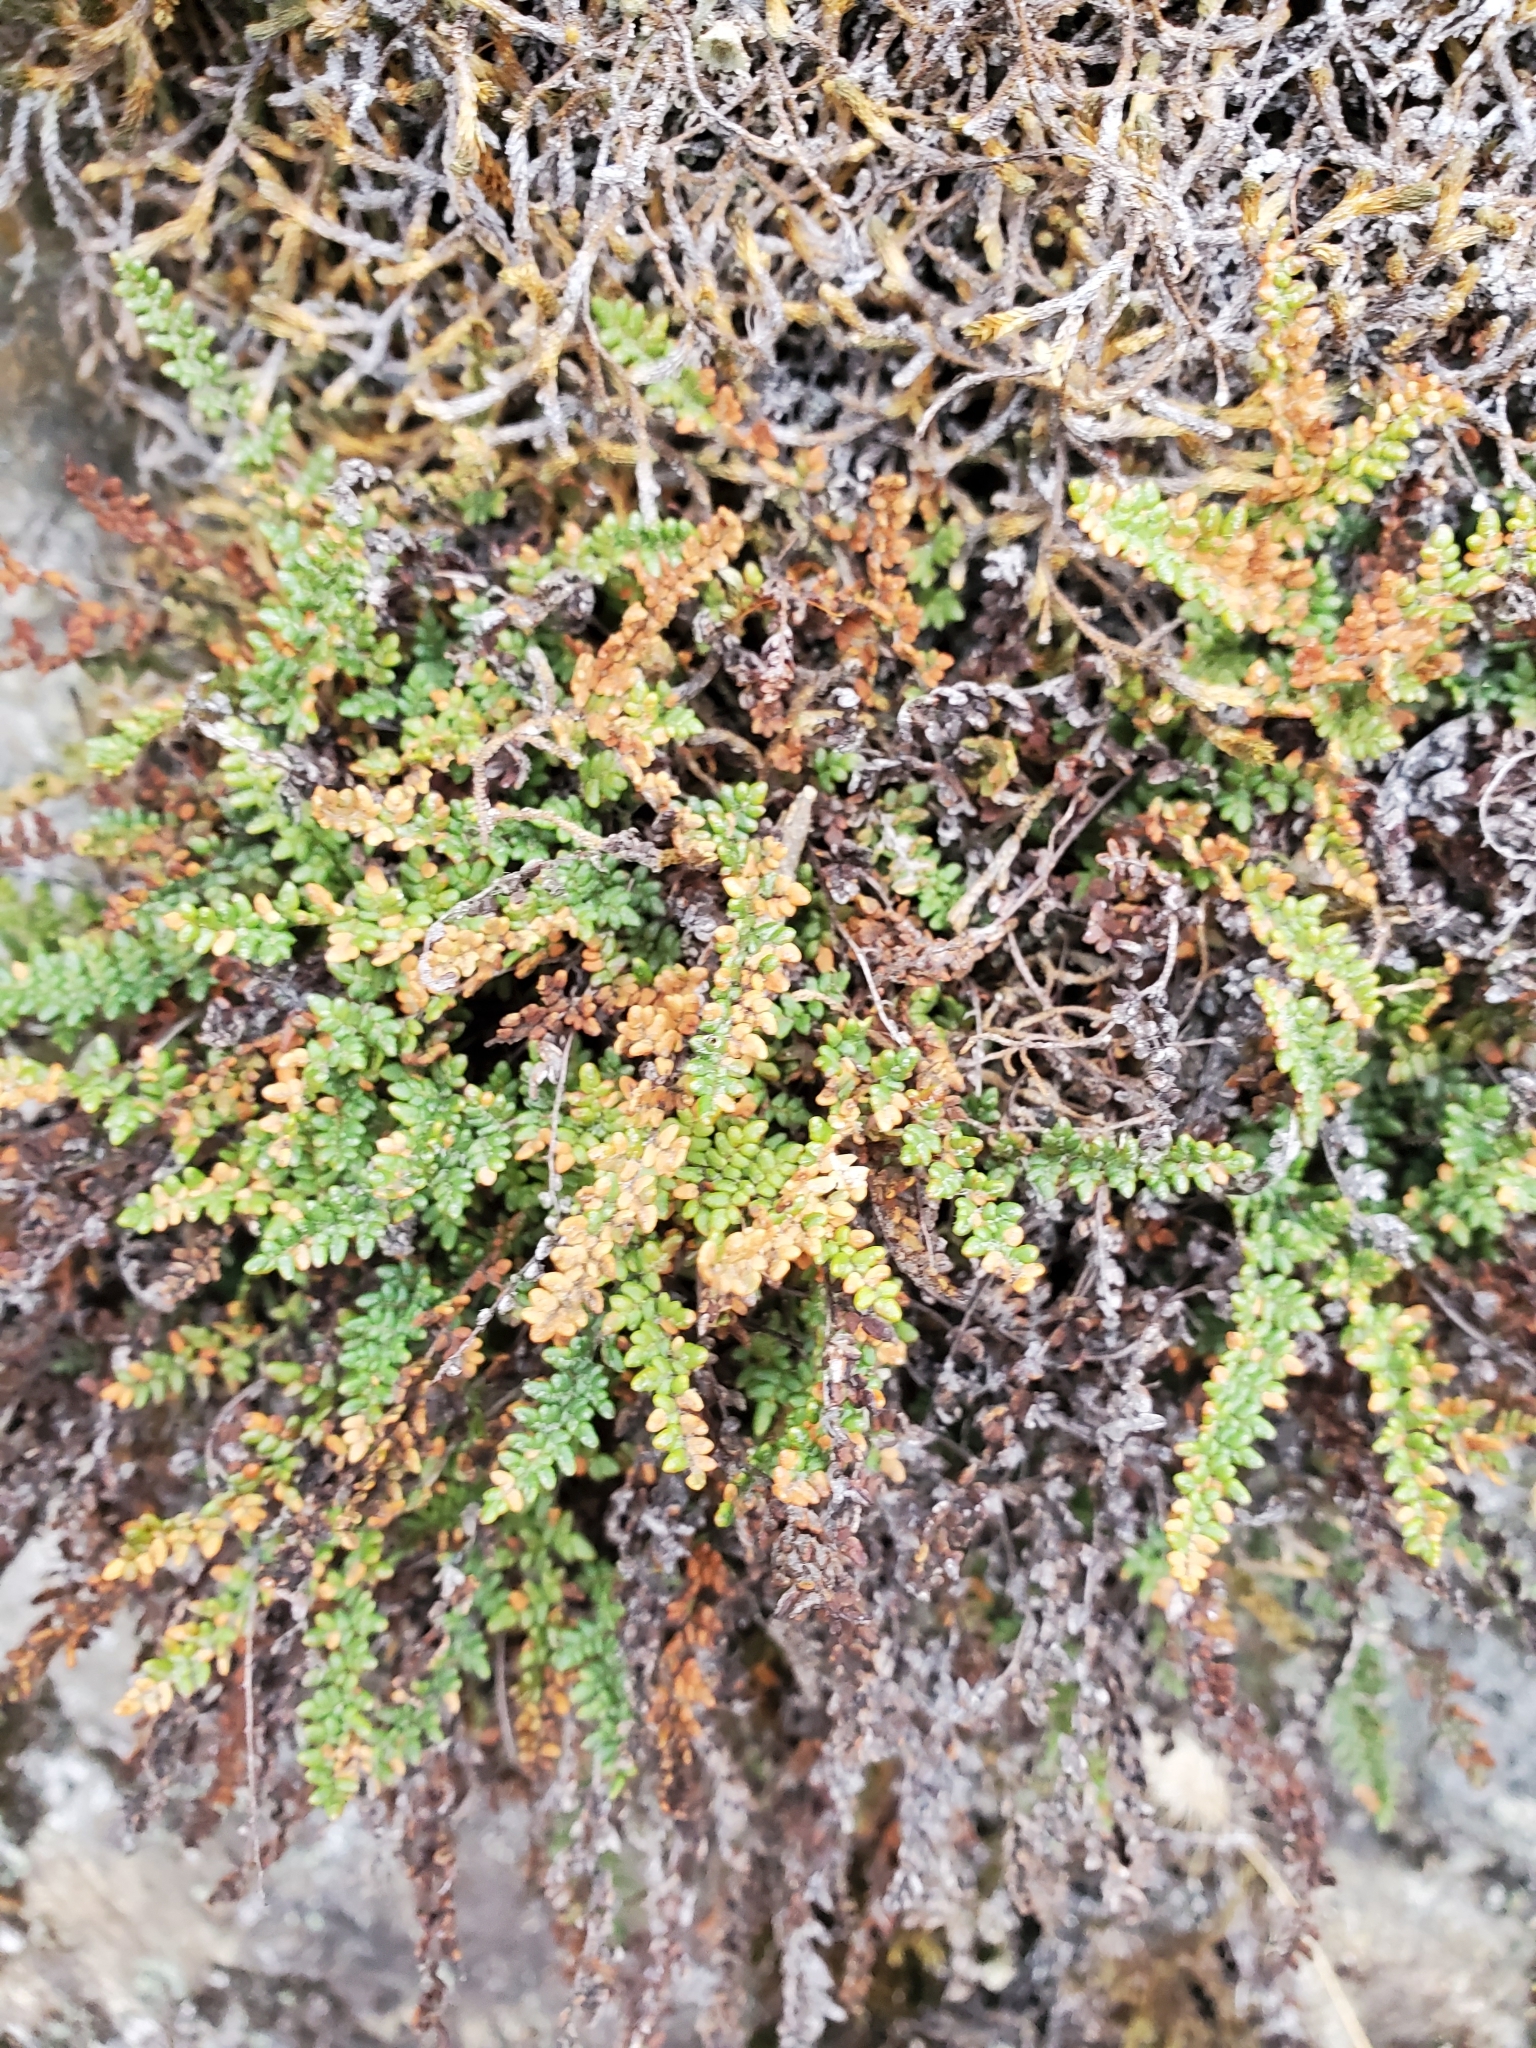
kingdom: Plantae
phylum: Tracheophyta
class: Polypodiopsida
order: Polypodiales
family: Pteridaceae
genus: Myriopteris
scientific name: Myriopteris gracillima
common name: Lace fern
